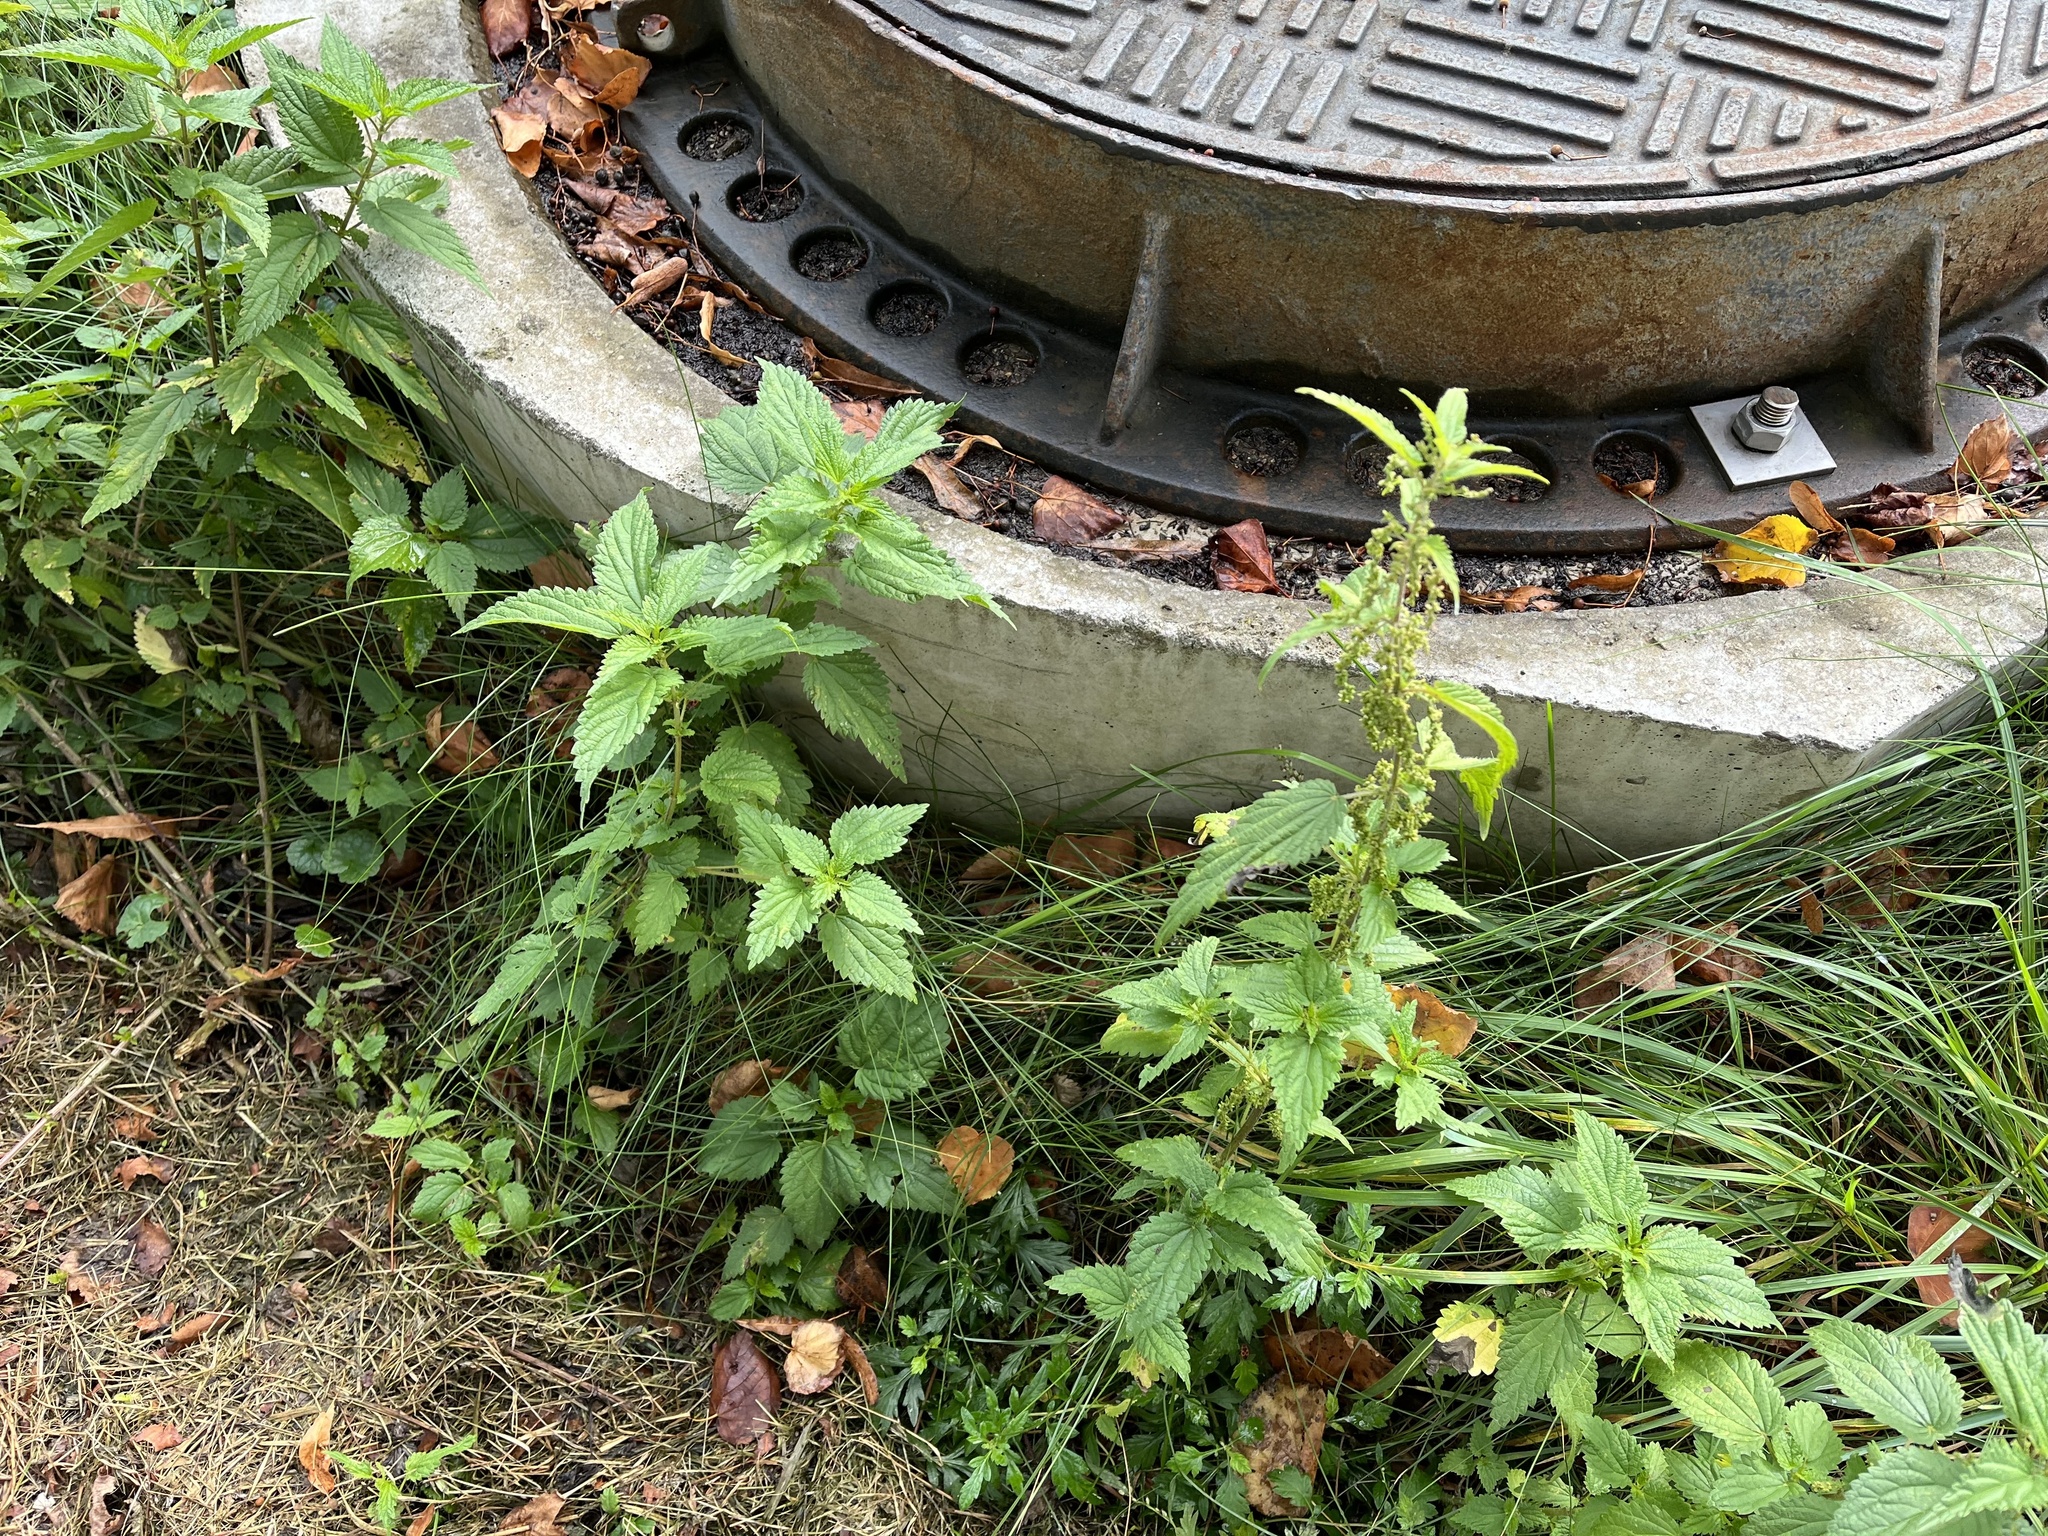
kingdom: Plantae
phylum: Tracheophyta
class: Magnoliopsida
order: Rosales
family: Urticaceae
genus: Urtica
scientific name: Urtica dioica
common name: Common nettle
